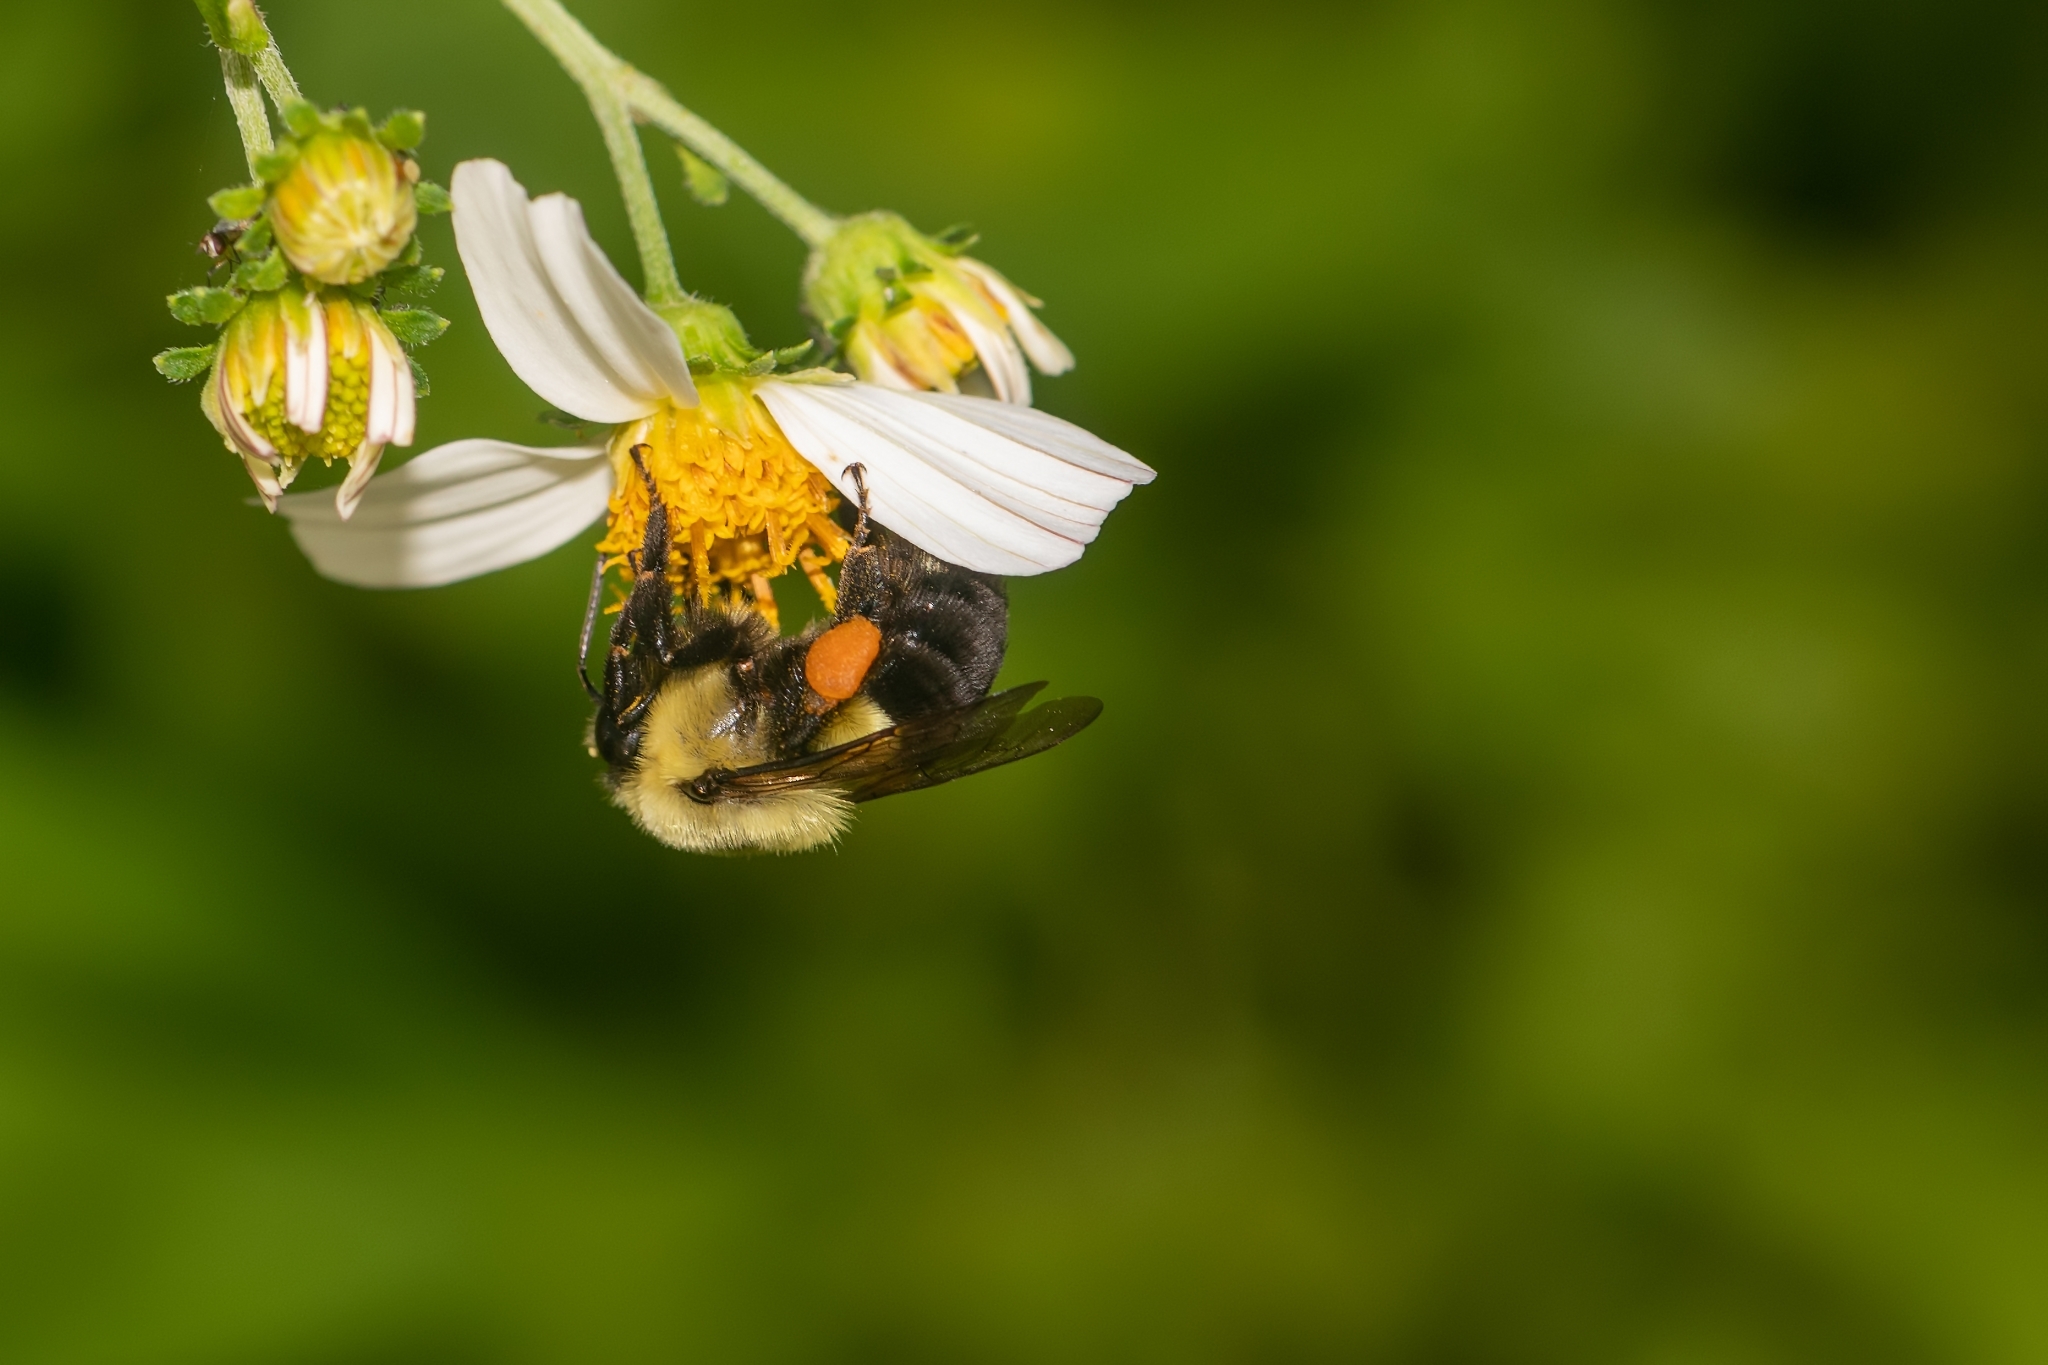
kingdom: Animalia
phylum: Arthropoda
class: Insecta
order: Hymenoptera
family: Apidae
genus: Bombus
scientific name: Bombus impatiens
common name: Common eastern bumble bee
